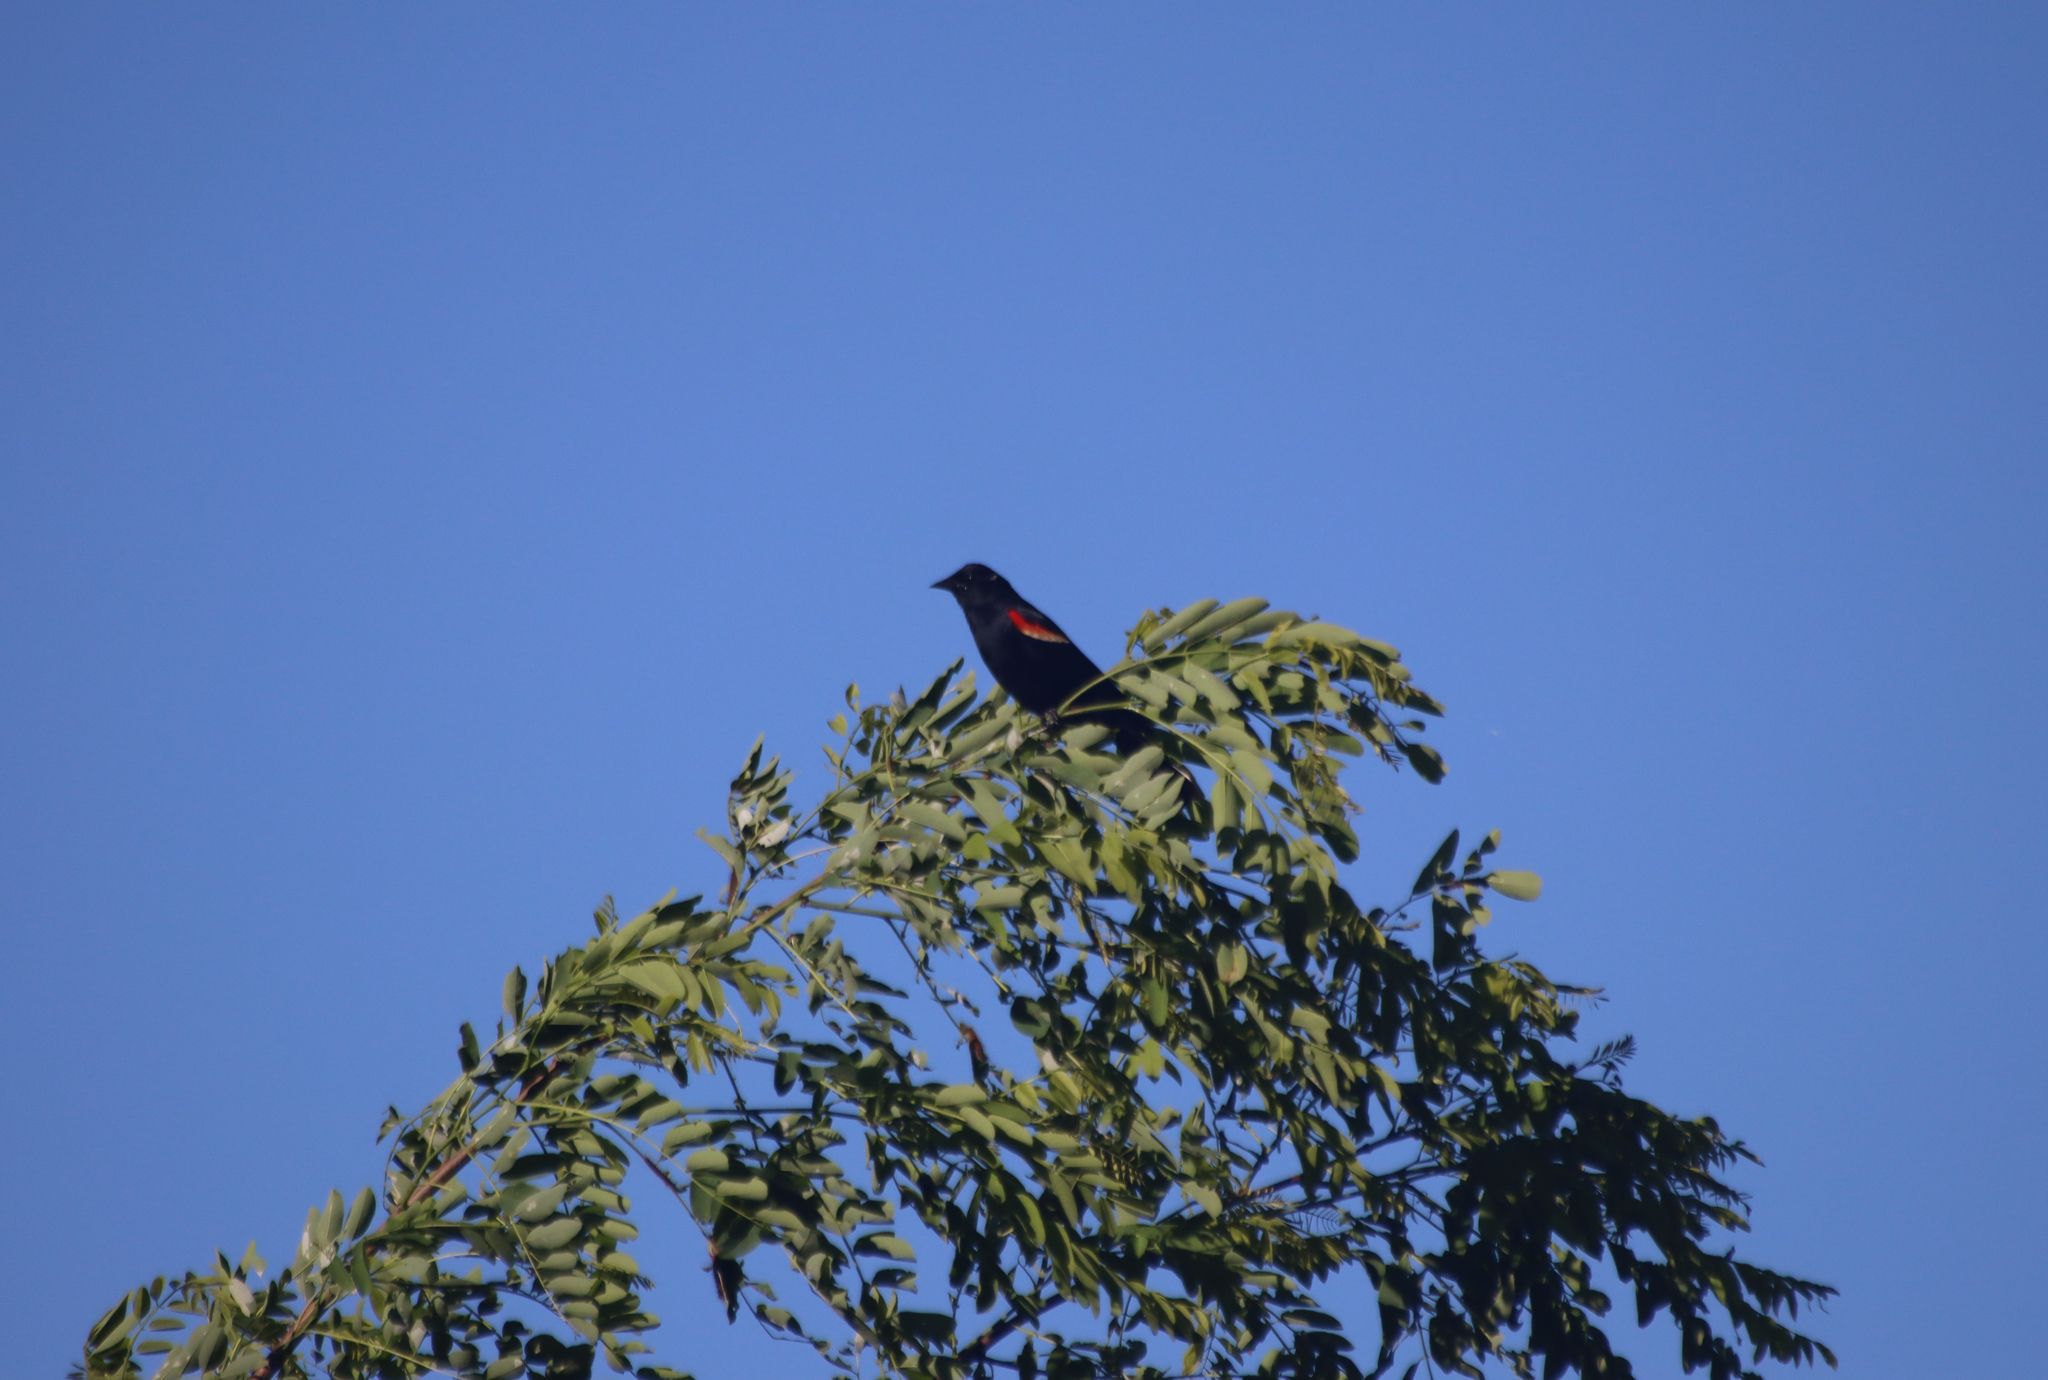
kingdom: Animalia
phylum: Chordata
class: Aves
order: Passeriformes
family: Icteridae
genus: Agelaius
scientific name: Agelaius phoeniceus
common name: Red-winged blackbird
